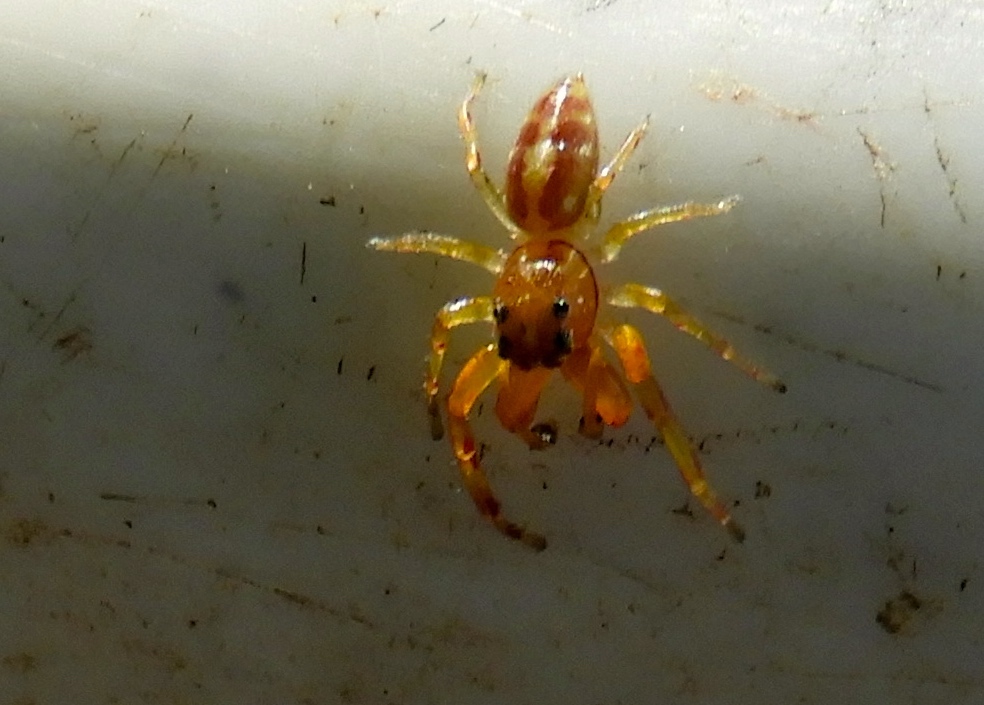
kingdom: Animalia
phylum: Arthropoda
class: Arachnida
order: Araneae
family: Salticidae
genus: Gypogyna
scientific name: Gypogyna mexicana
